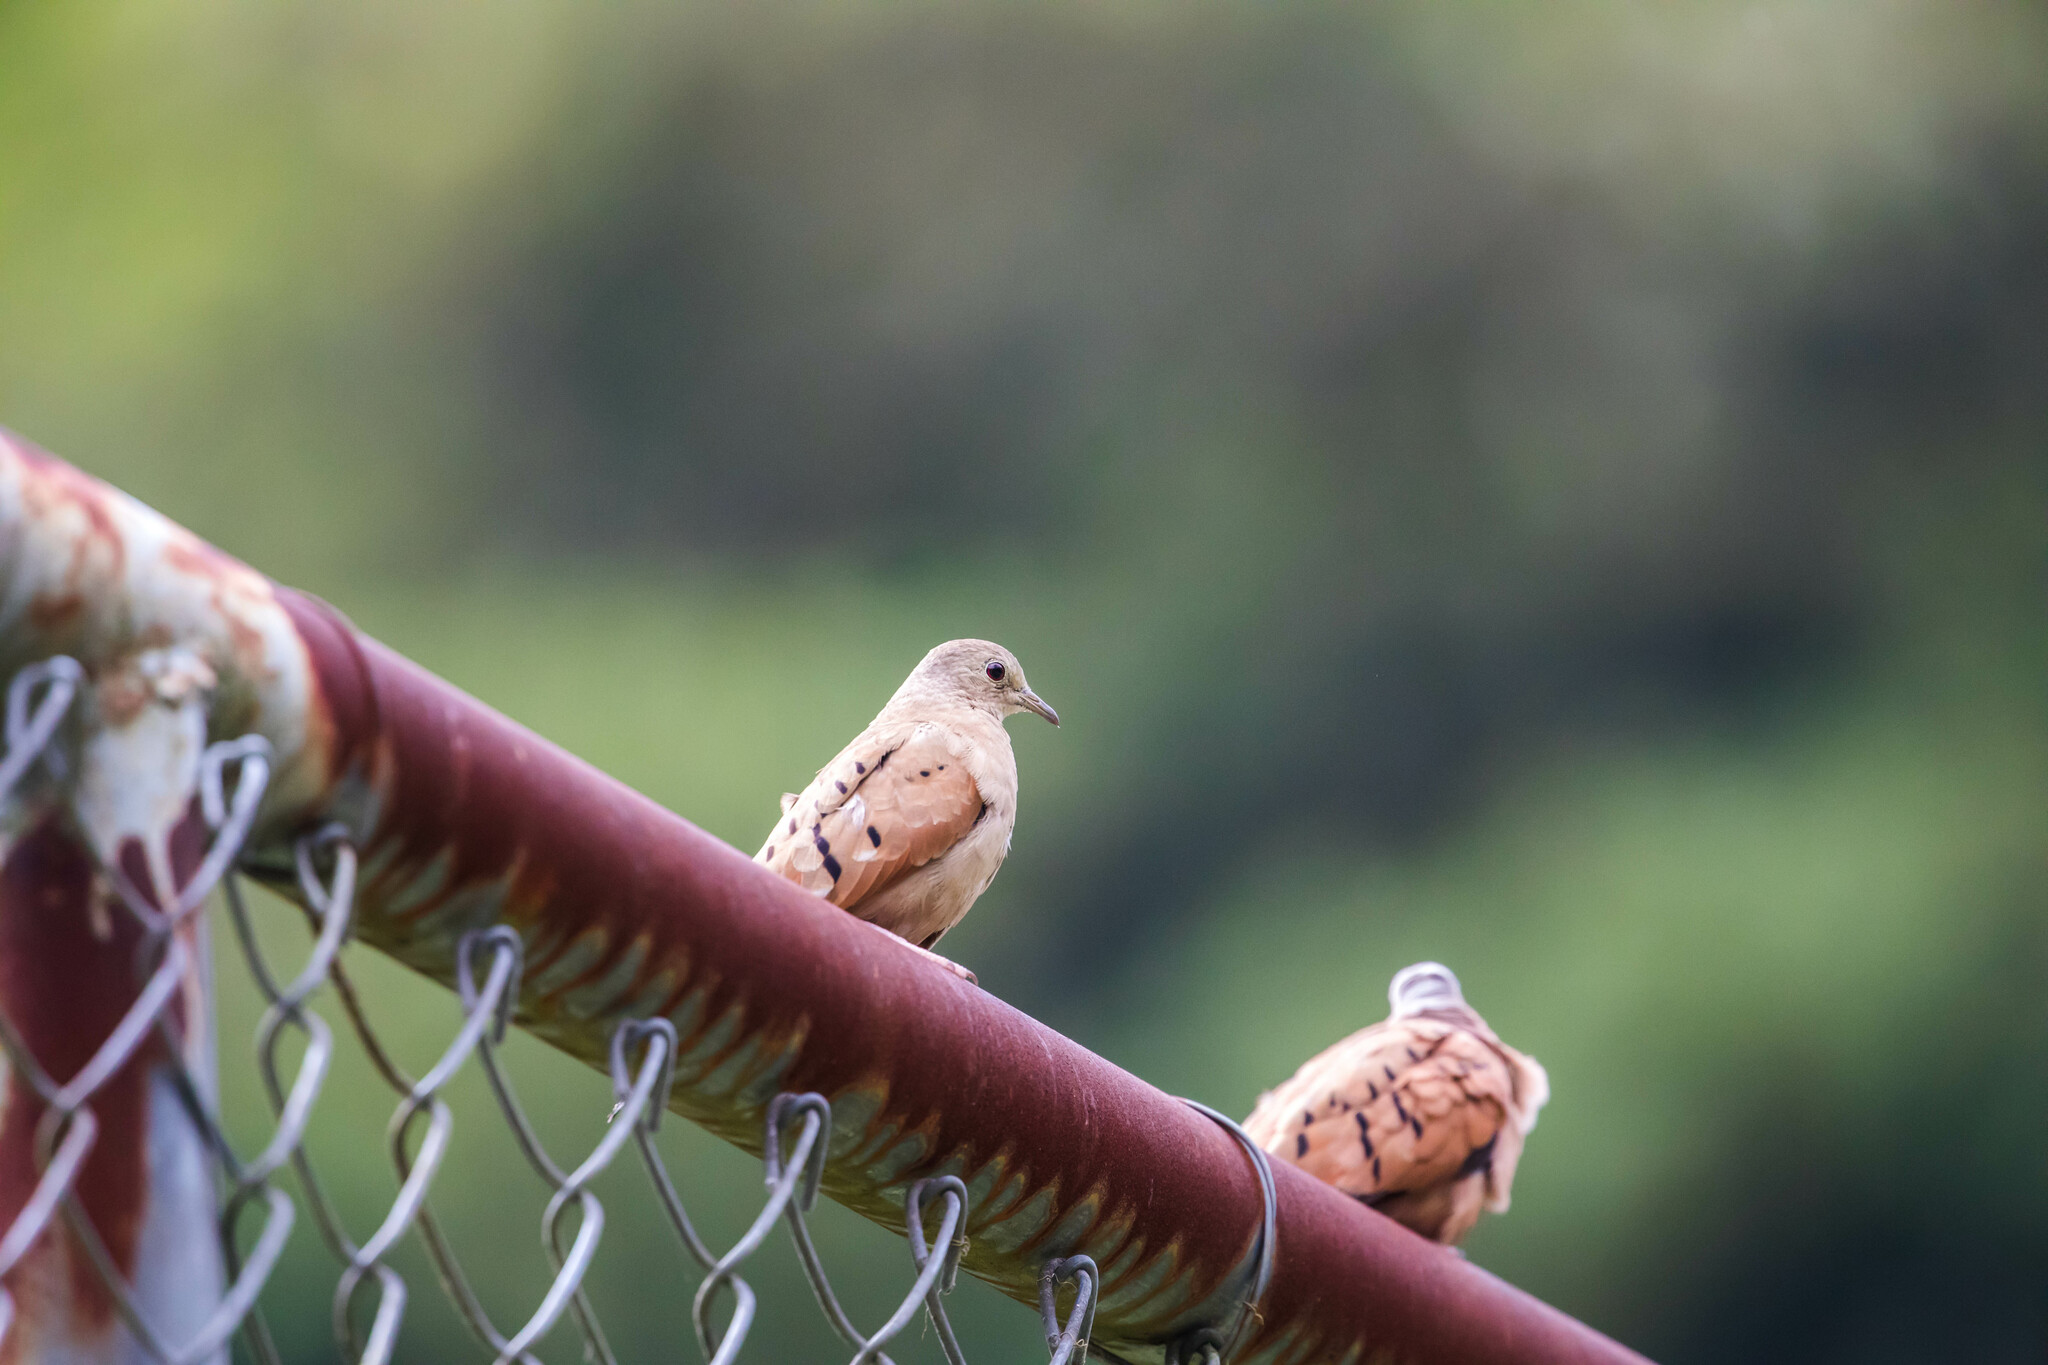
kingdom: Animalia
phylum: Chordata
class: Aves
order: Columbiformes
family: Columbidae
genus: Columbina
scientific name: Columbina talpacoti
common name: Ruddy ground dove
